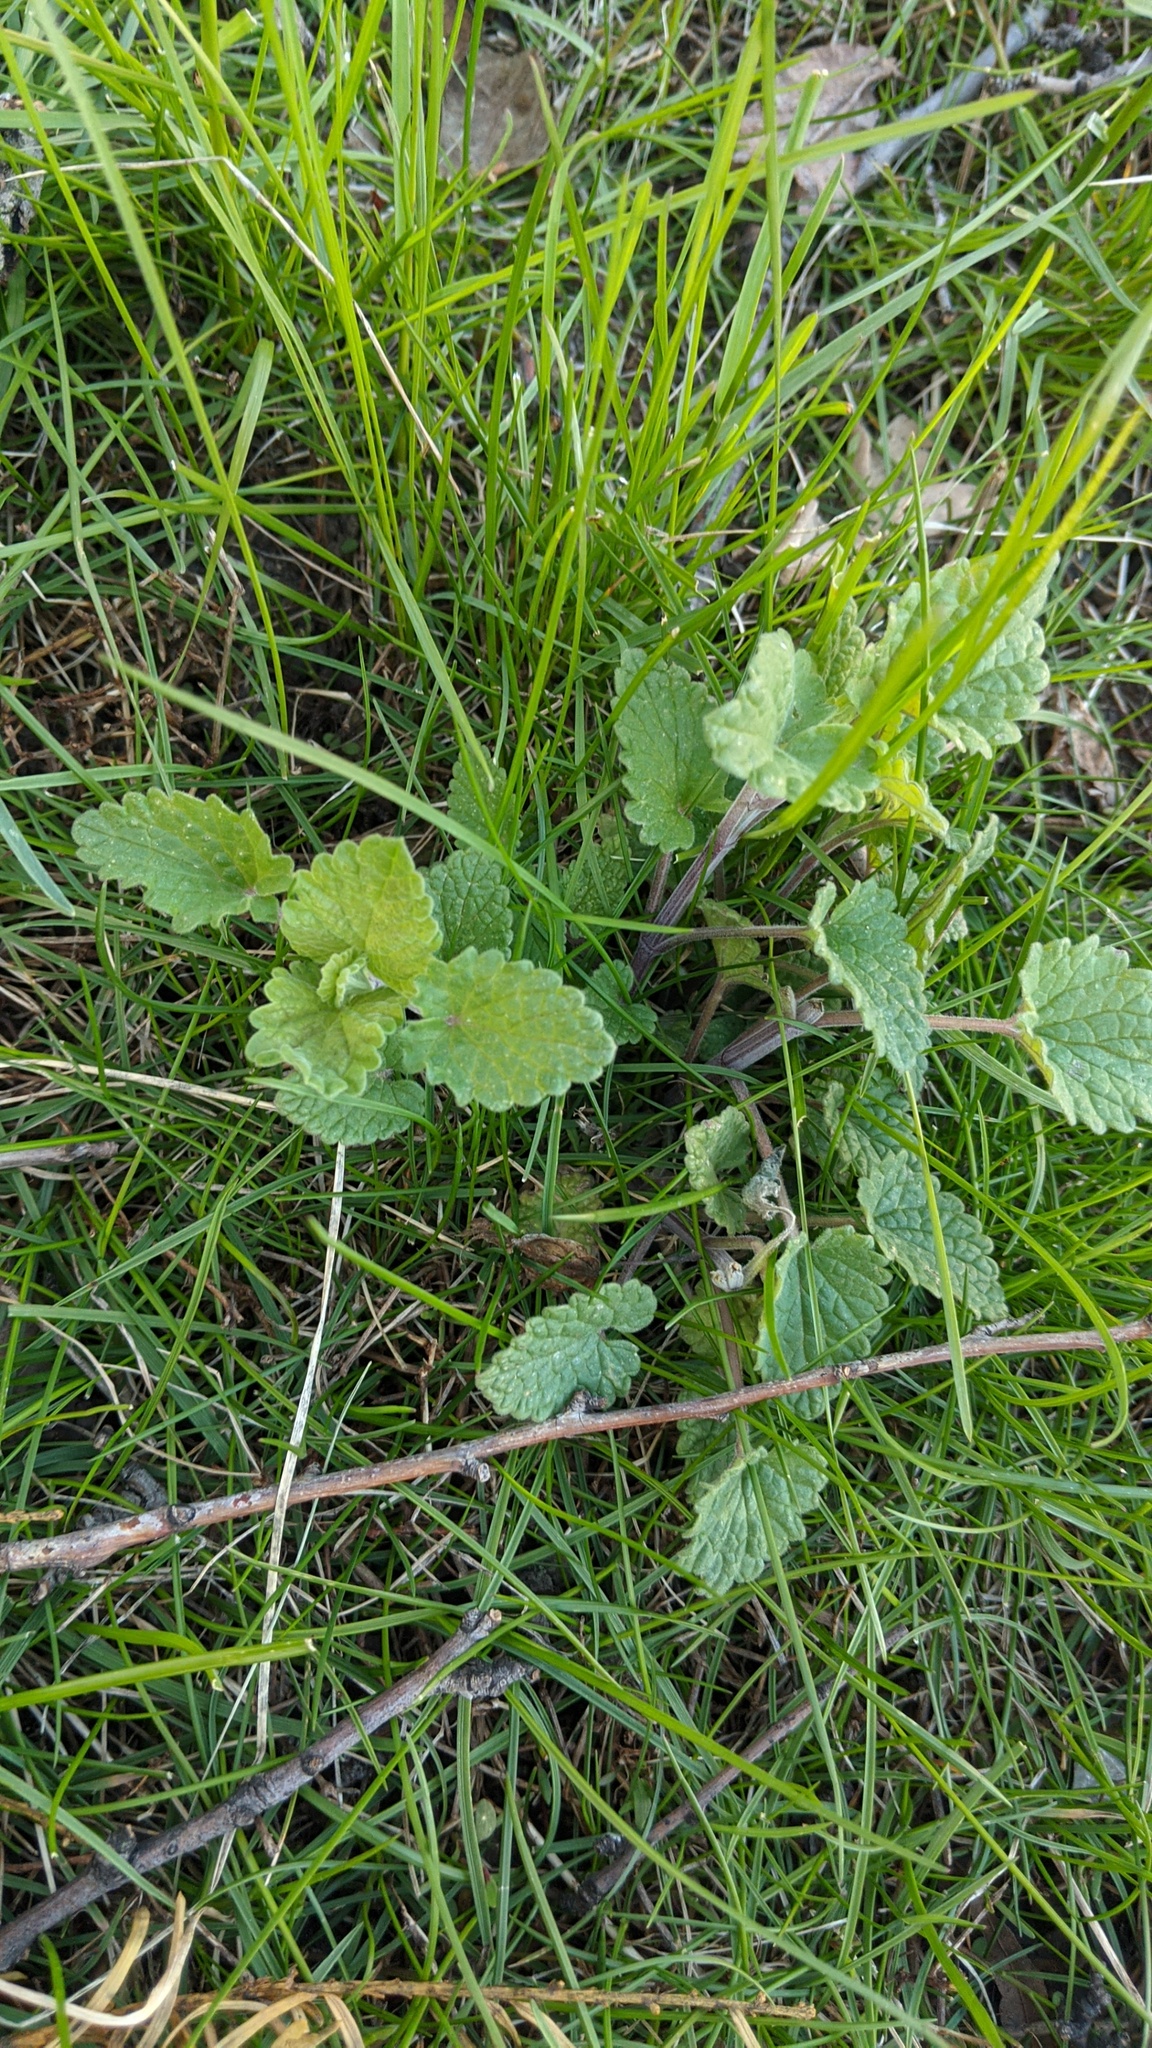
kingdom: Plantae
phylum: Tracheophyta
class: Magnoliopsida
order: Lamiales
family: Lamiaceae
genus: Nepeta
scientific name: Nepeta cataria
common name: Catnip
